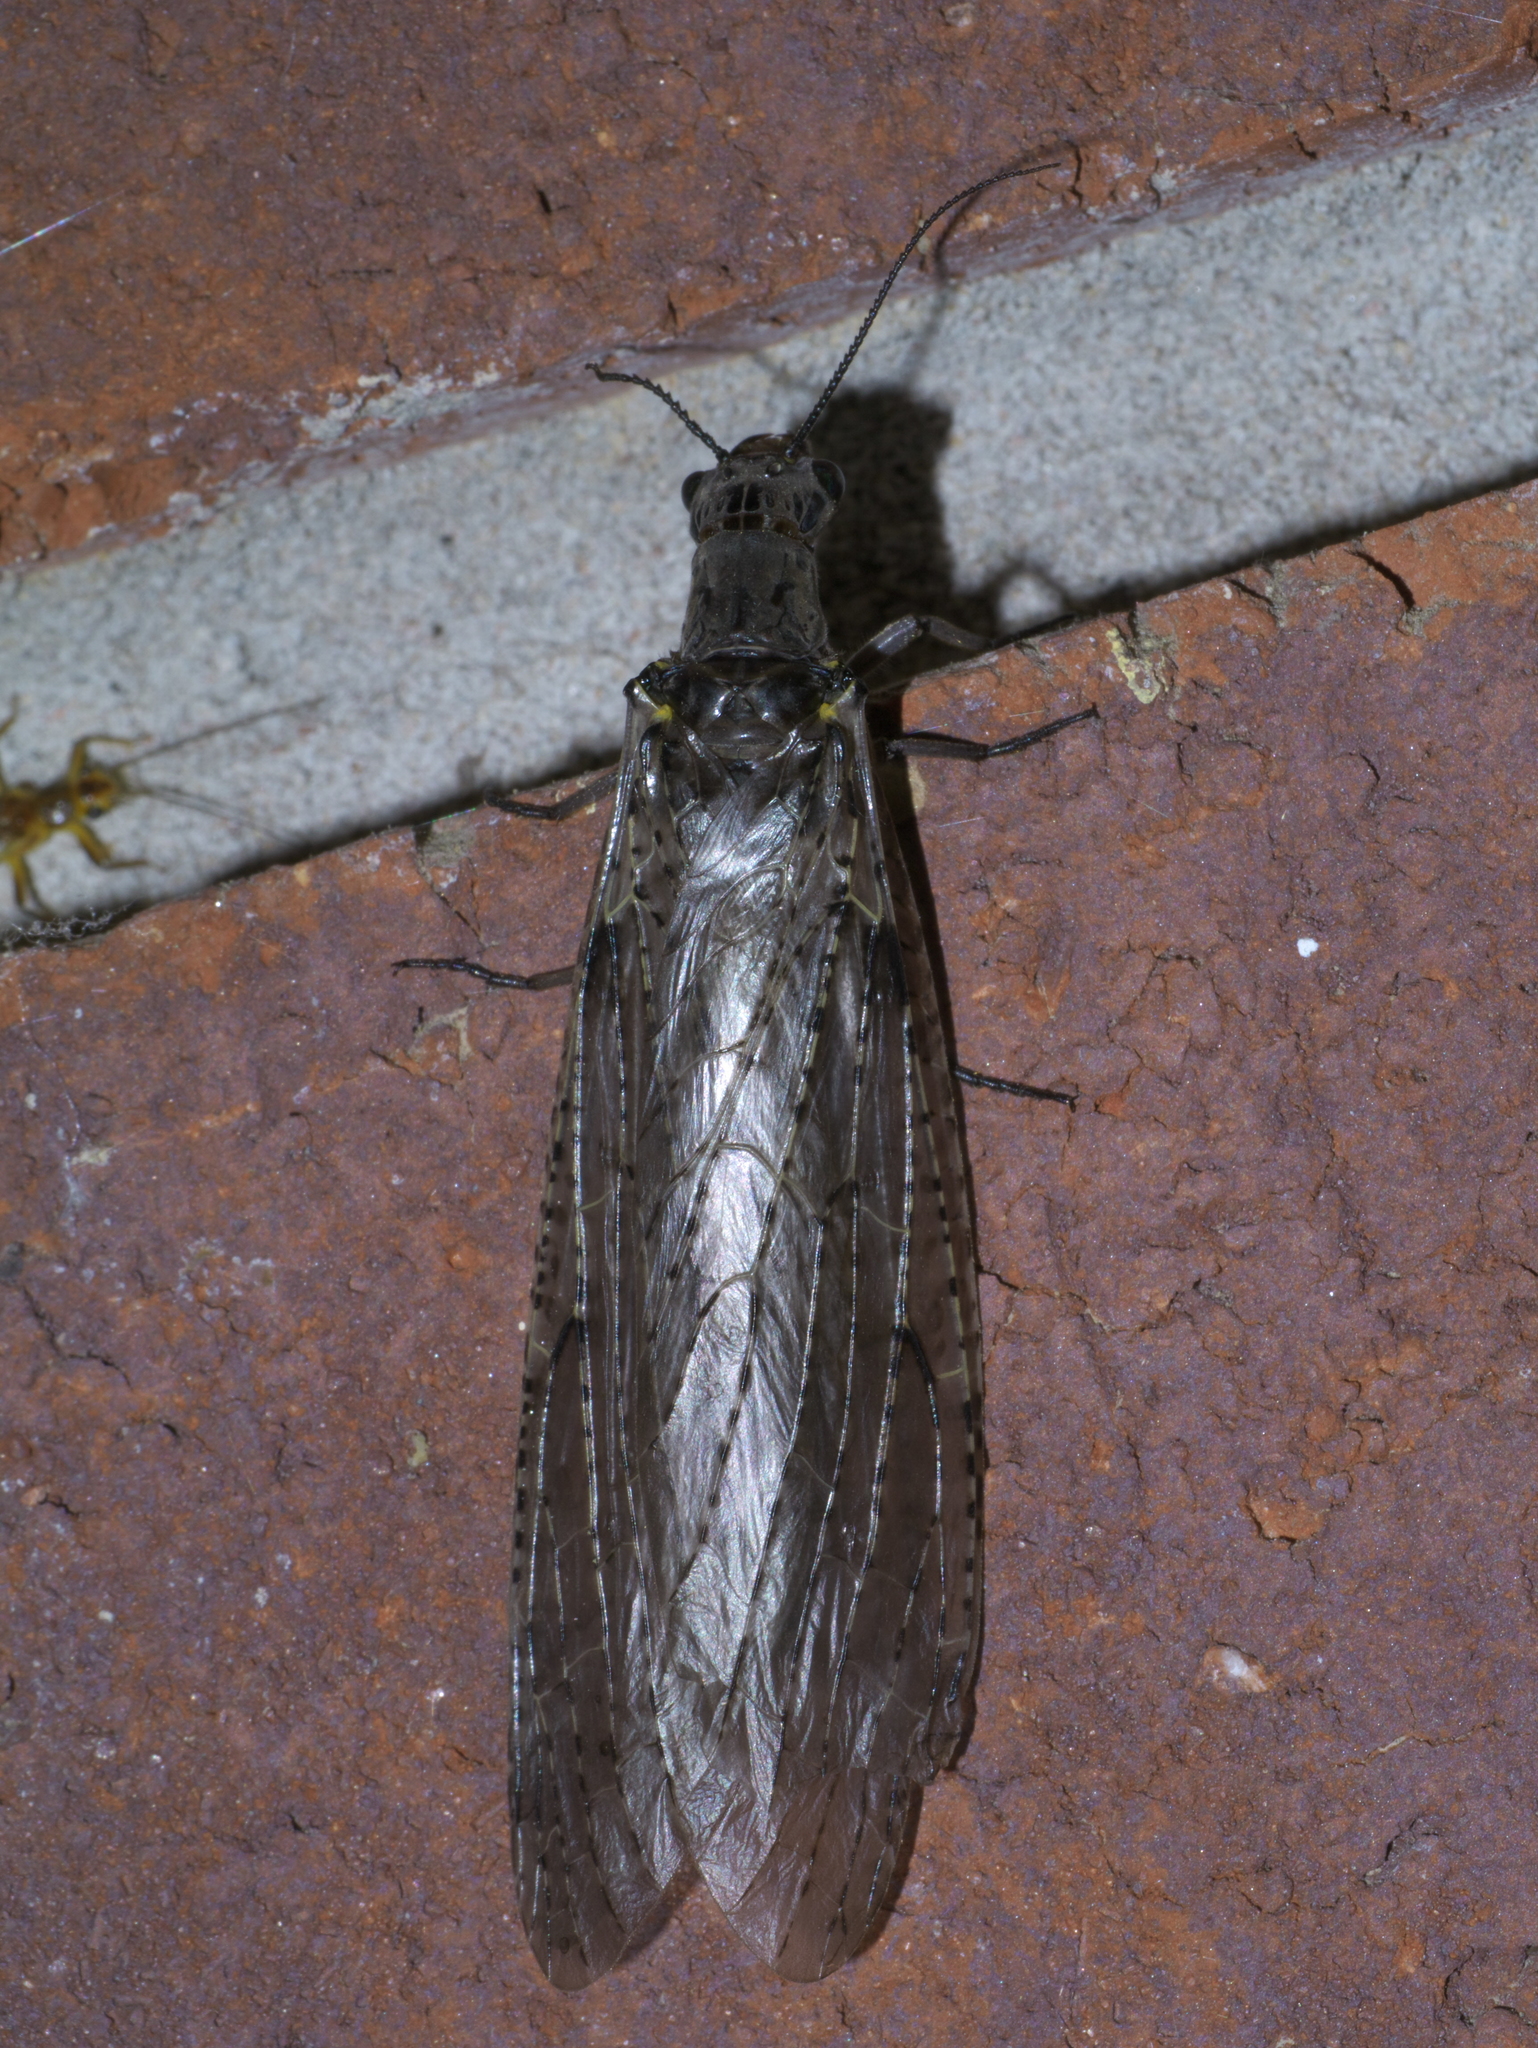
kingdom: Animalia
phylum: Arthropoda
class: Insecta
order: Megaloptera
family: Corydalidae
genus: Chauliodes
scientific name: Chauliodes rastricornis
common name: Spring fishfly
